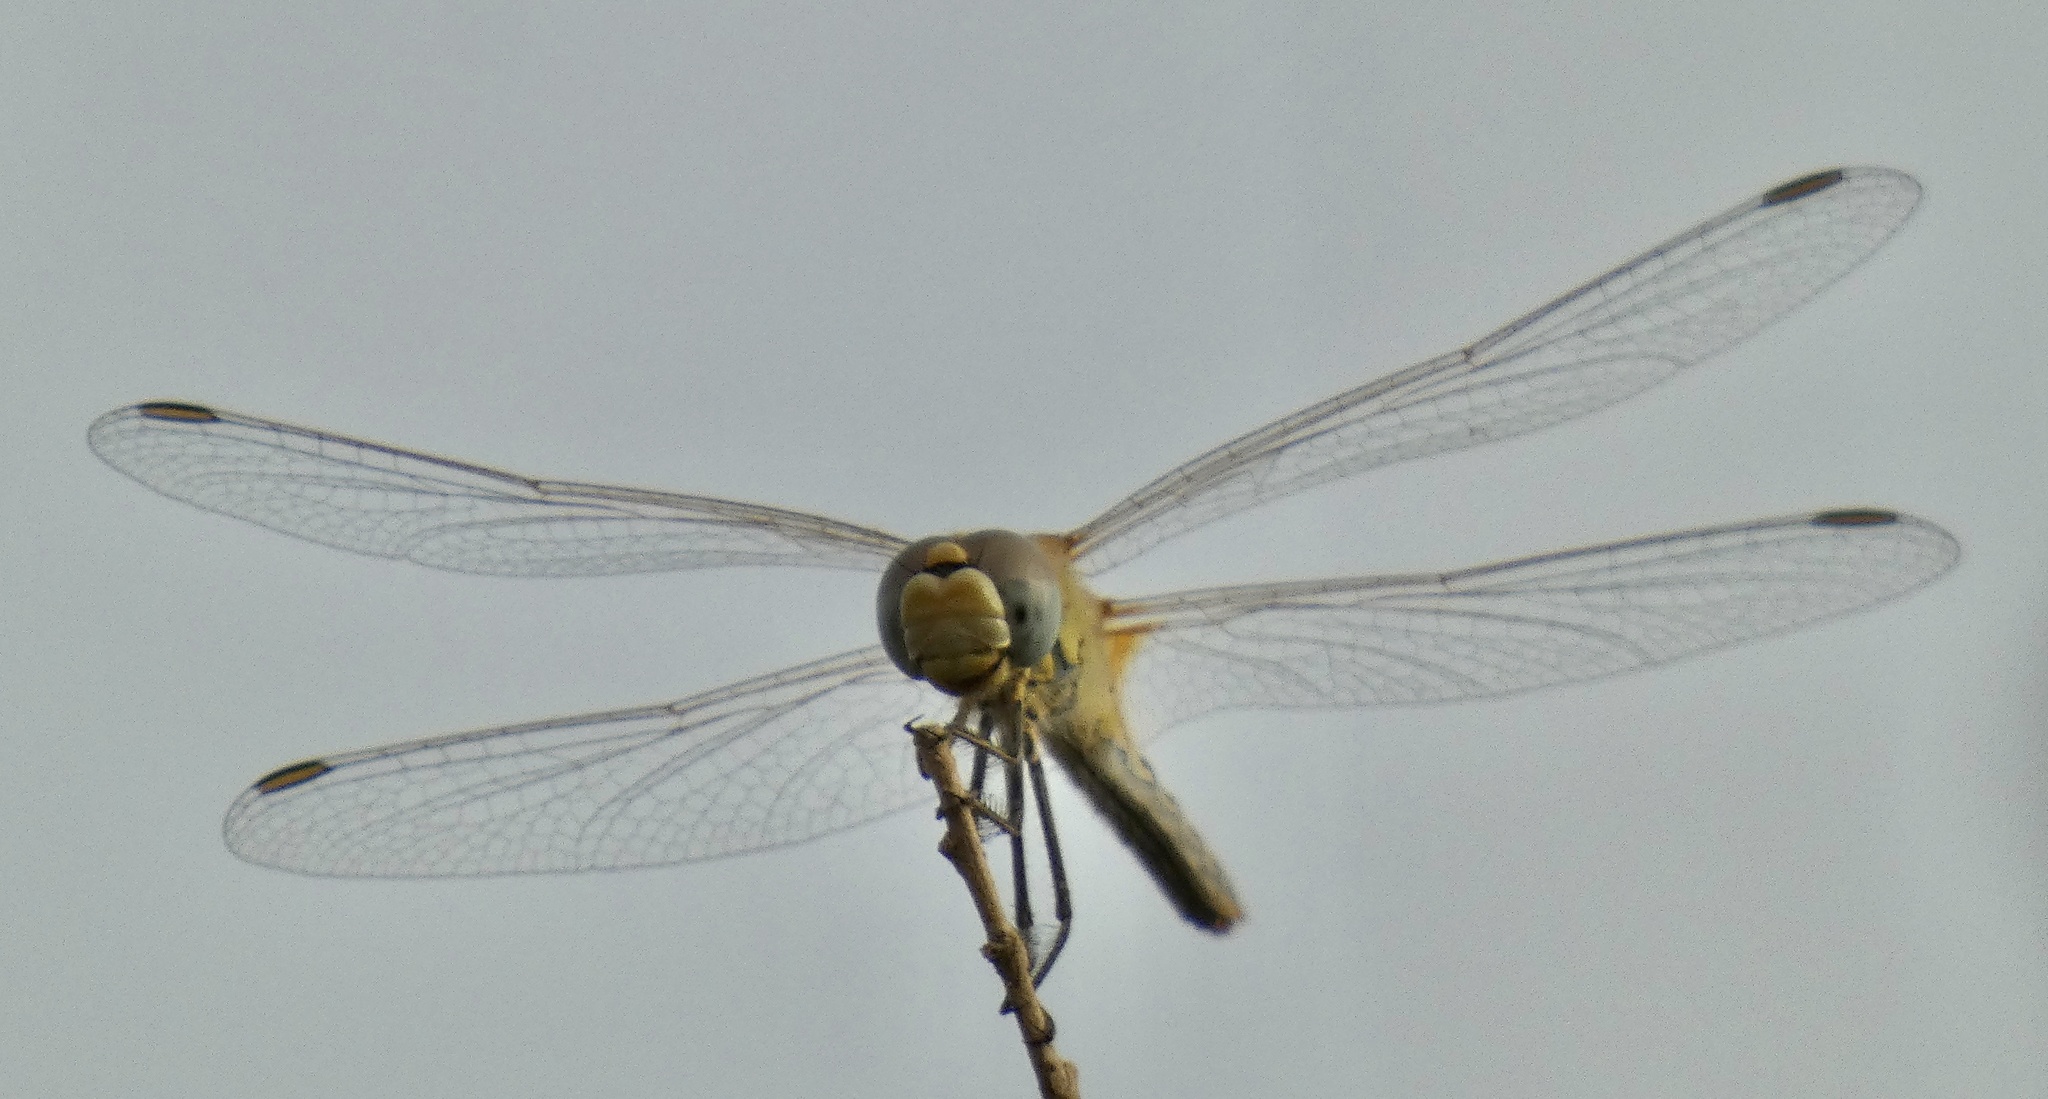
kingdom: Animalia
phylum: Arthropoda
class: Insecta
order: Odonata
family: Libellulidae
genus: Sympetrum
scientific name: Sympetrum fonscolombii
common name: Red-veined darter
